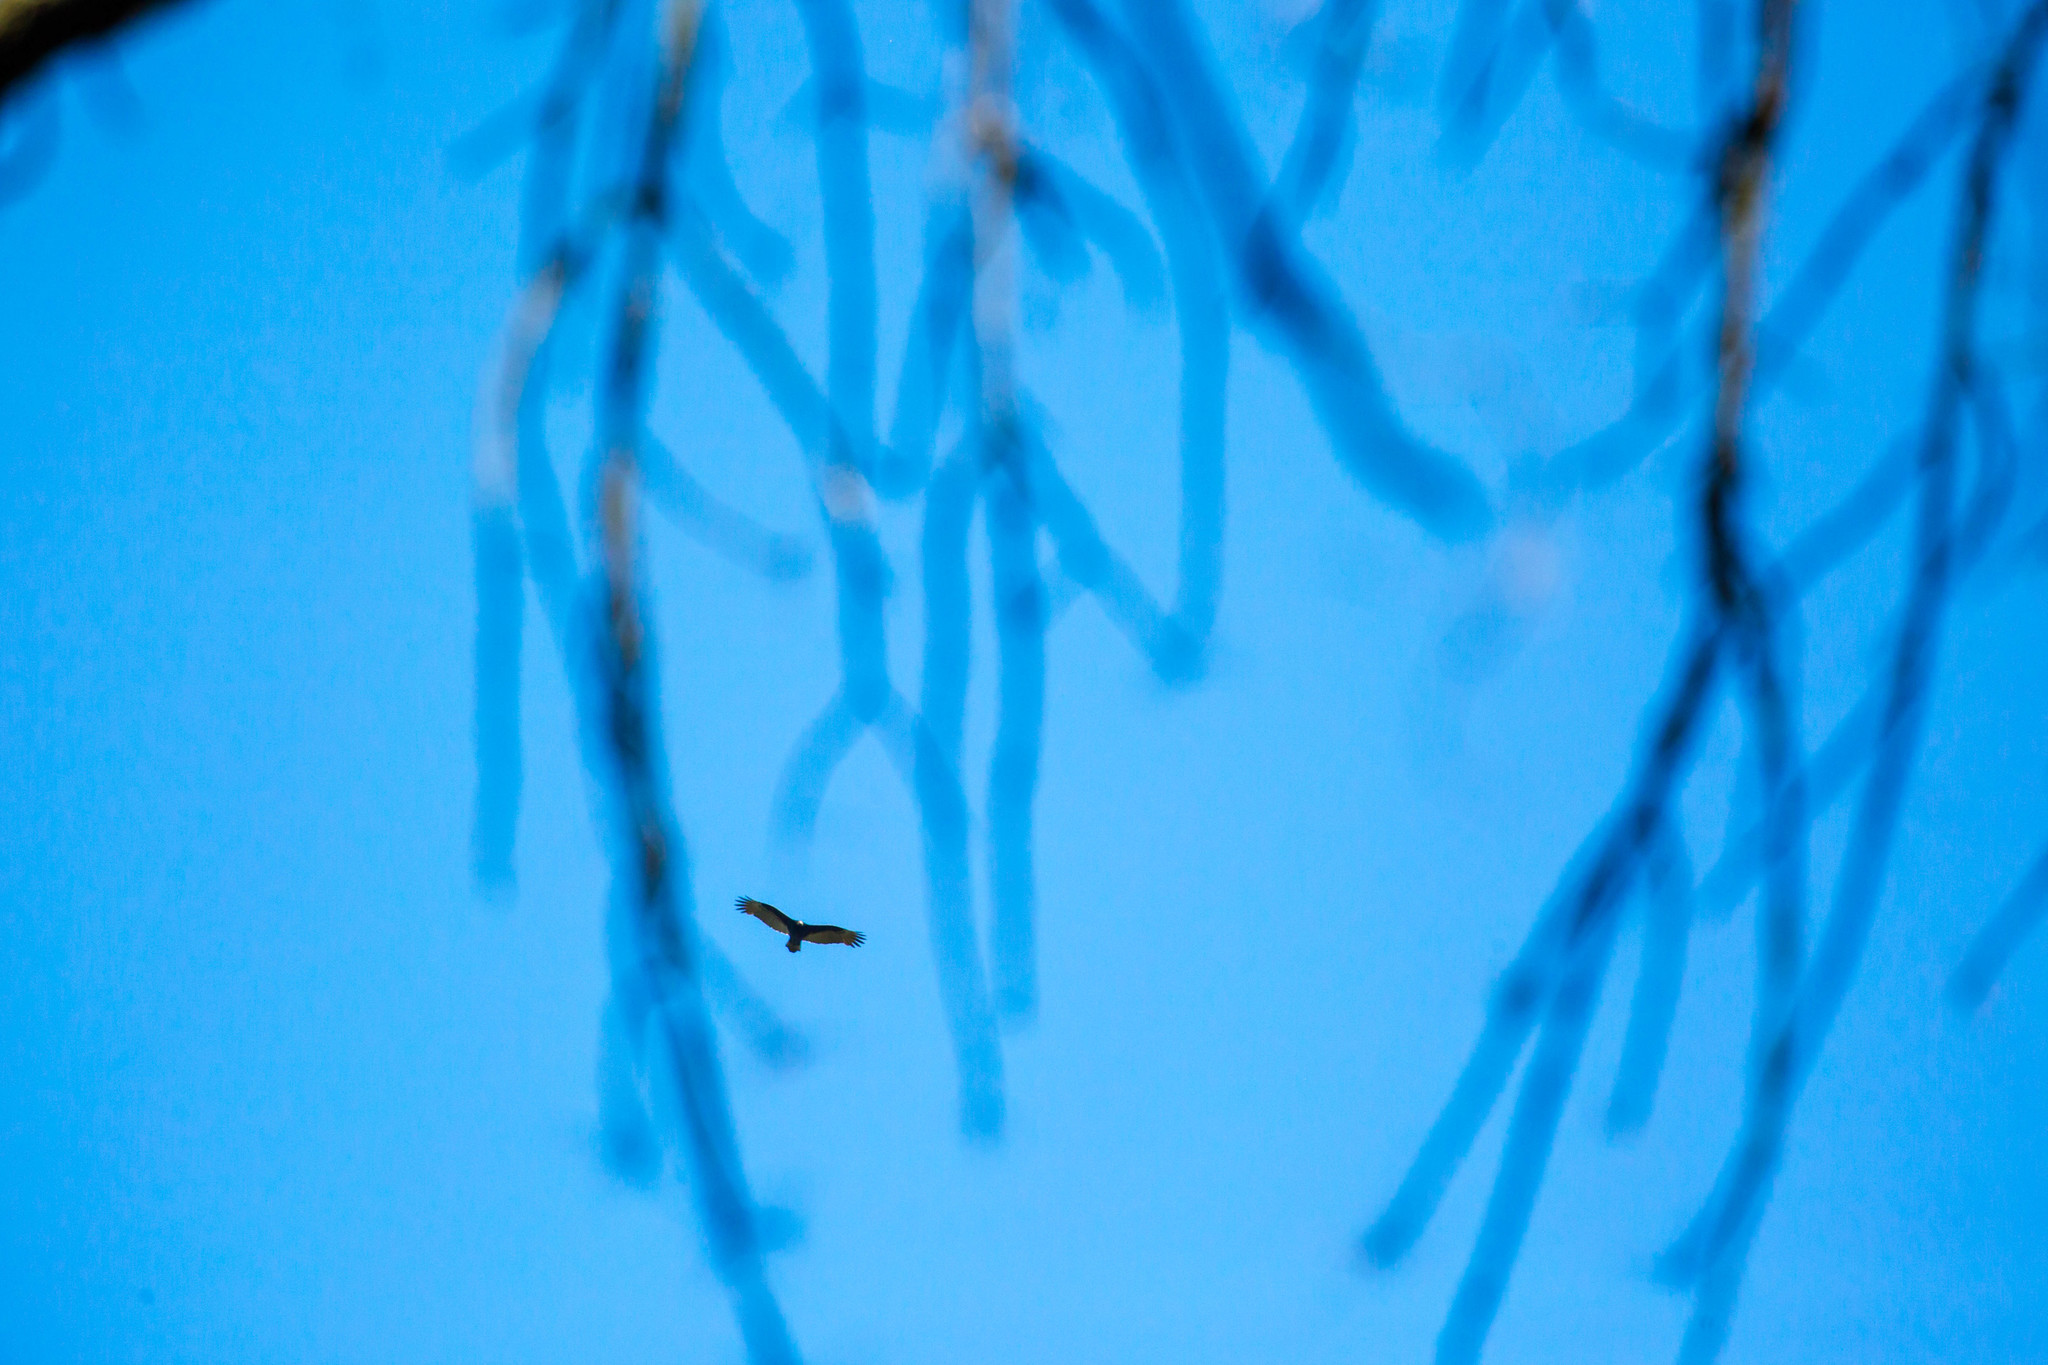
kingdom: Animalia
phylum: Chordata
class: Aves
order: Accipitriformes
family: Cathartidae
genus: Cathartes
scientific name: Cathartes aura
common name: Turkey vulture
